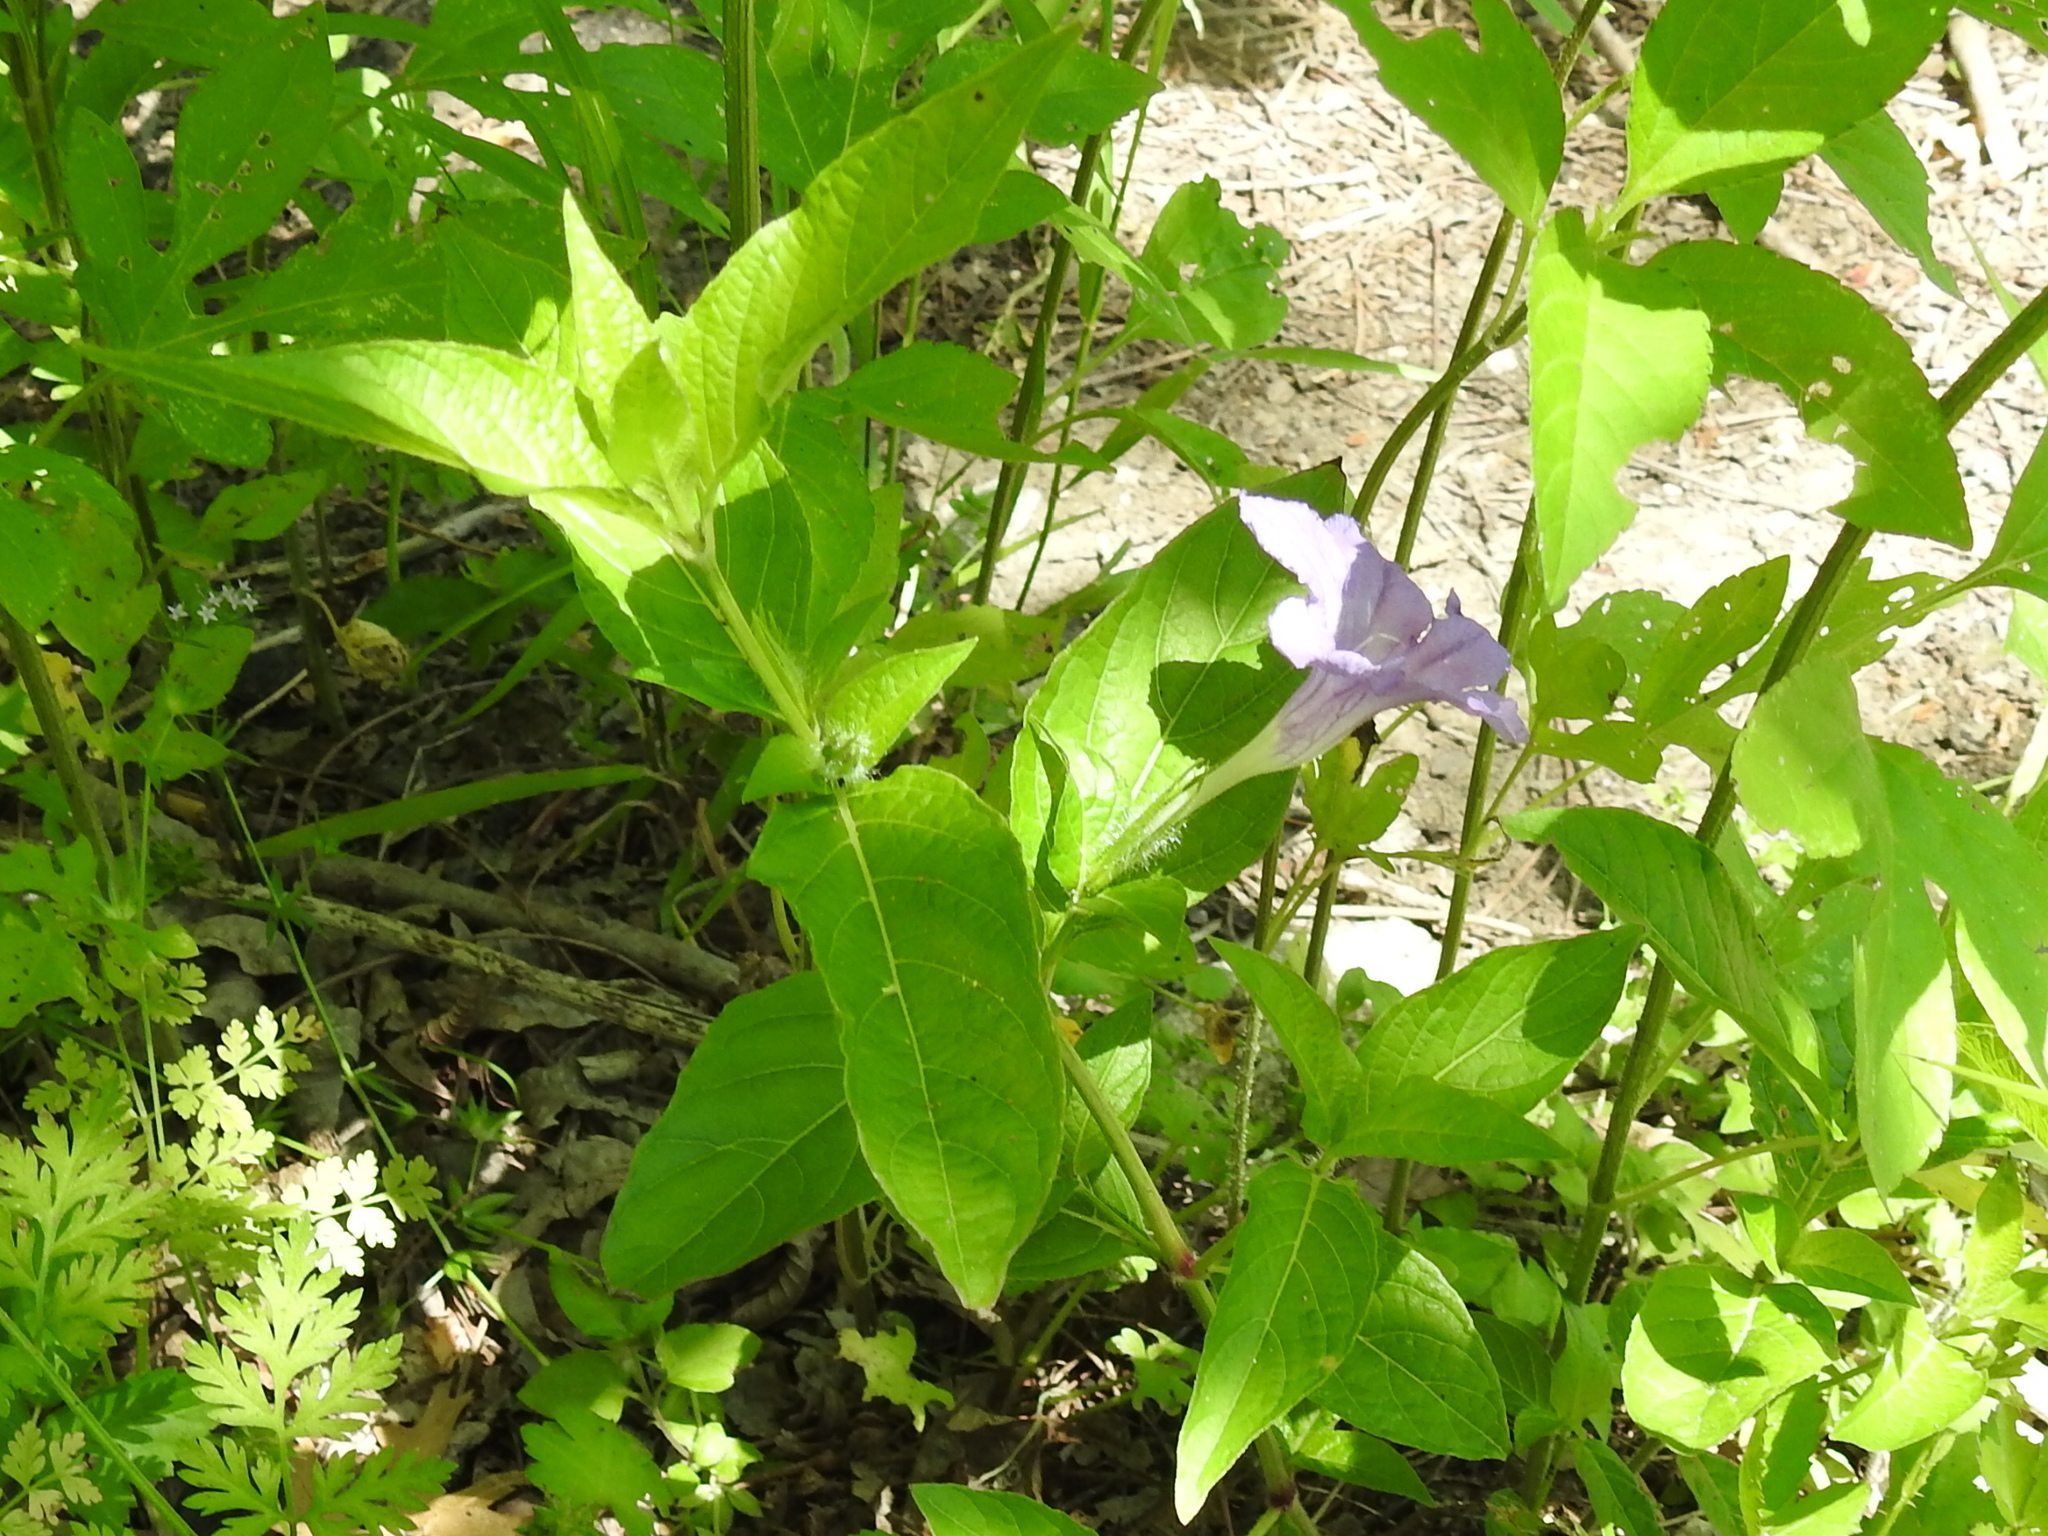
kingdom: Plantae
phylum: Tracheophyta
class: Magnoliopsida
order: Lamiales
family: Acanthaceae
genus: Ruellia
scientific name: Ruellia strepens
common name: Limestone wild petunia
